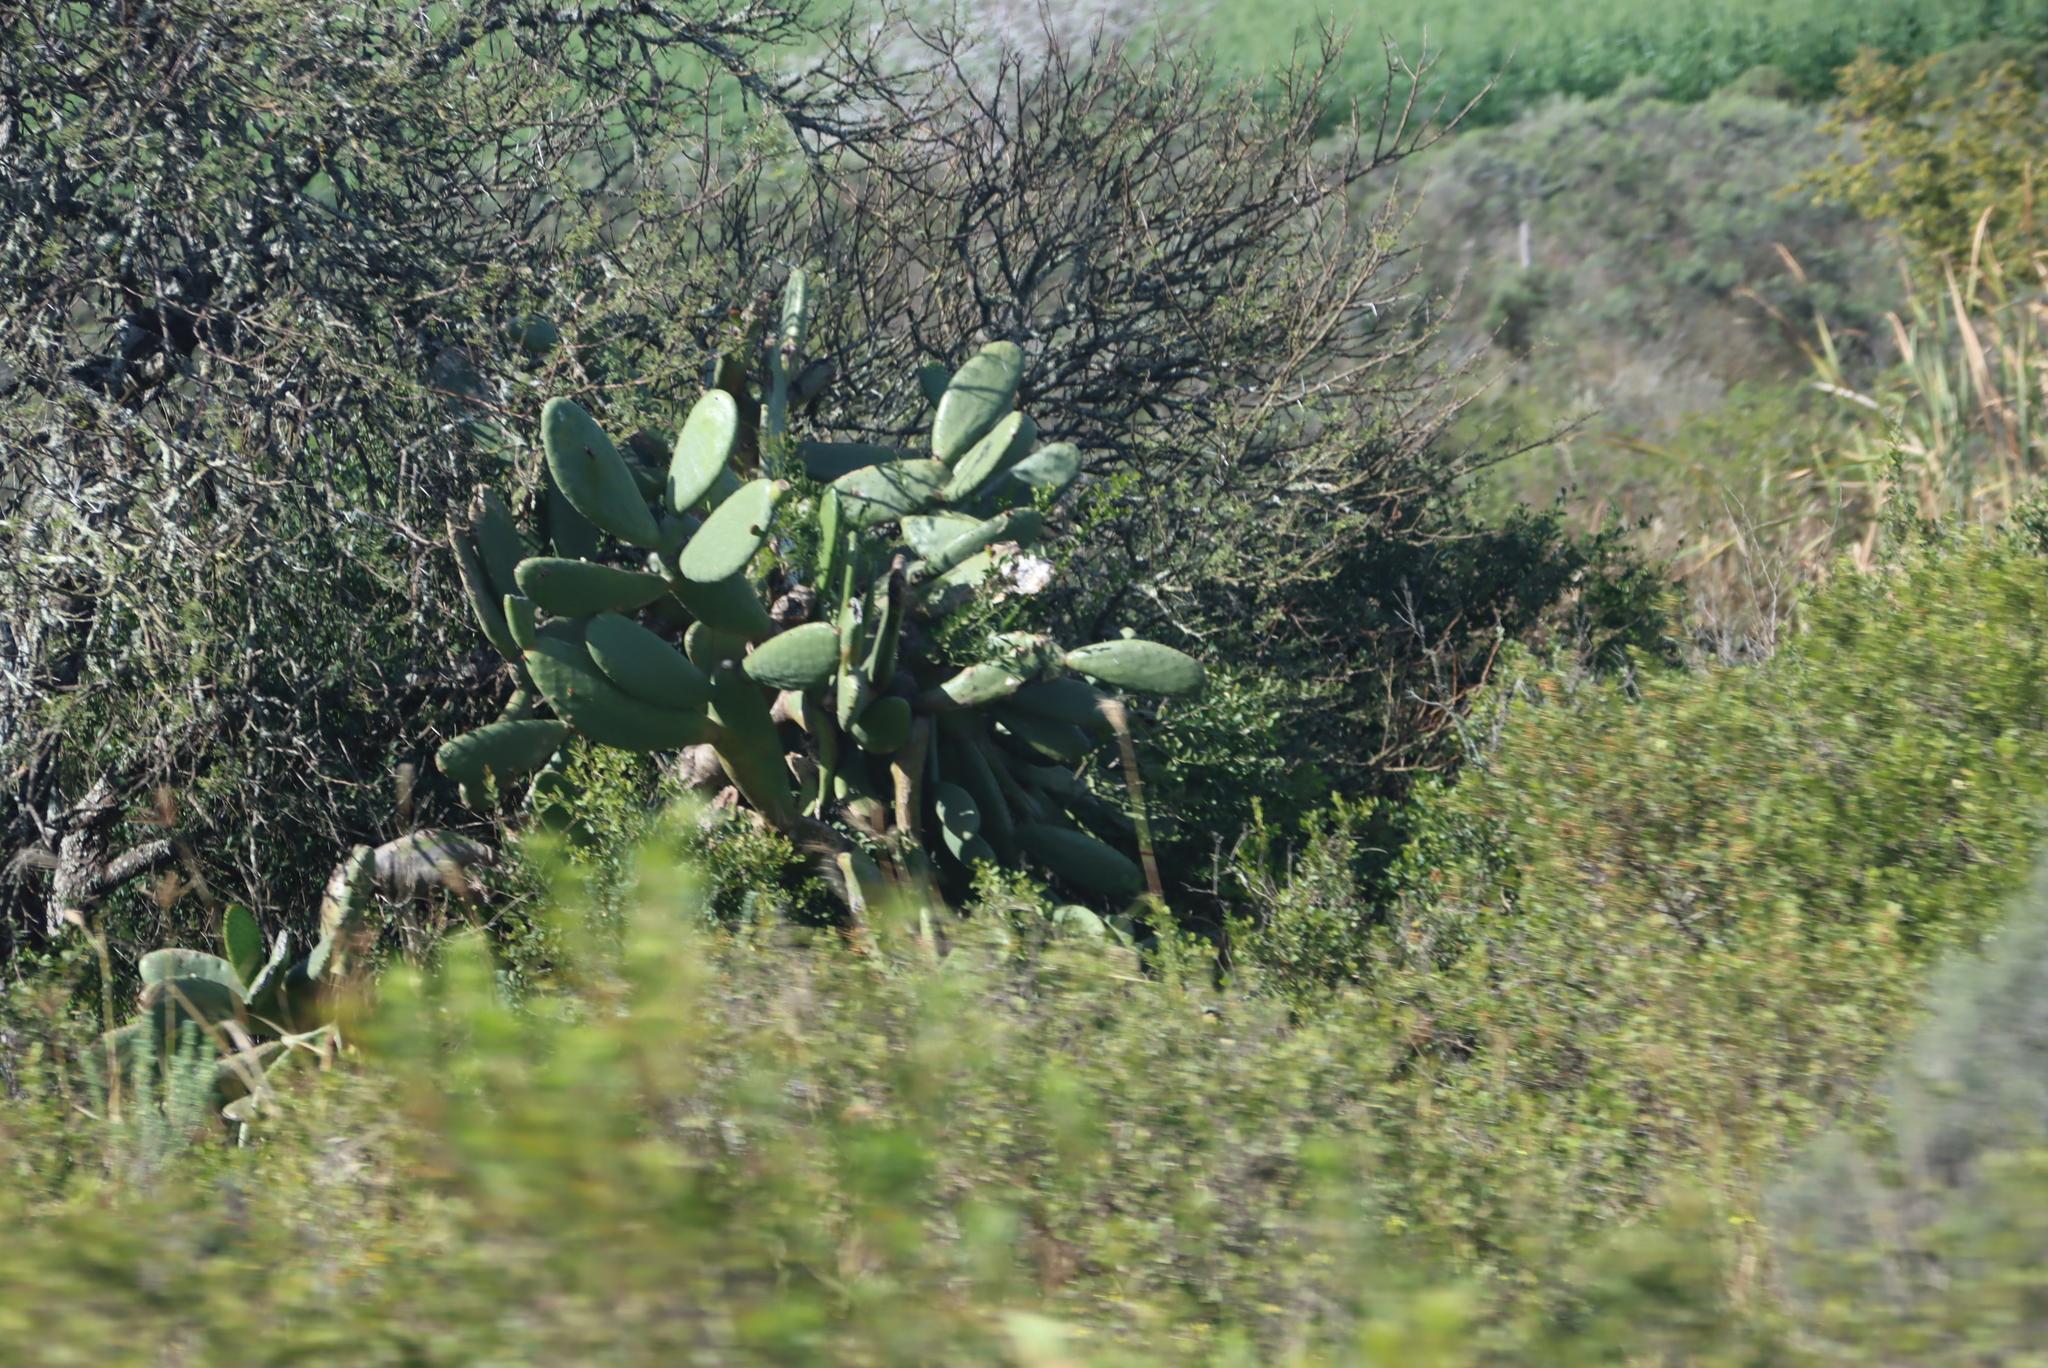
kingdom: Plantae
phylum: Tracheophyta
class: Magnoliopsida
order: Caryophyllales
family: Cactaceae
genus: Opuntia
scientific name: Opuntia ficus-indica
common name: Barbary fig
